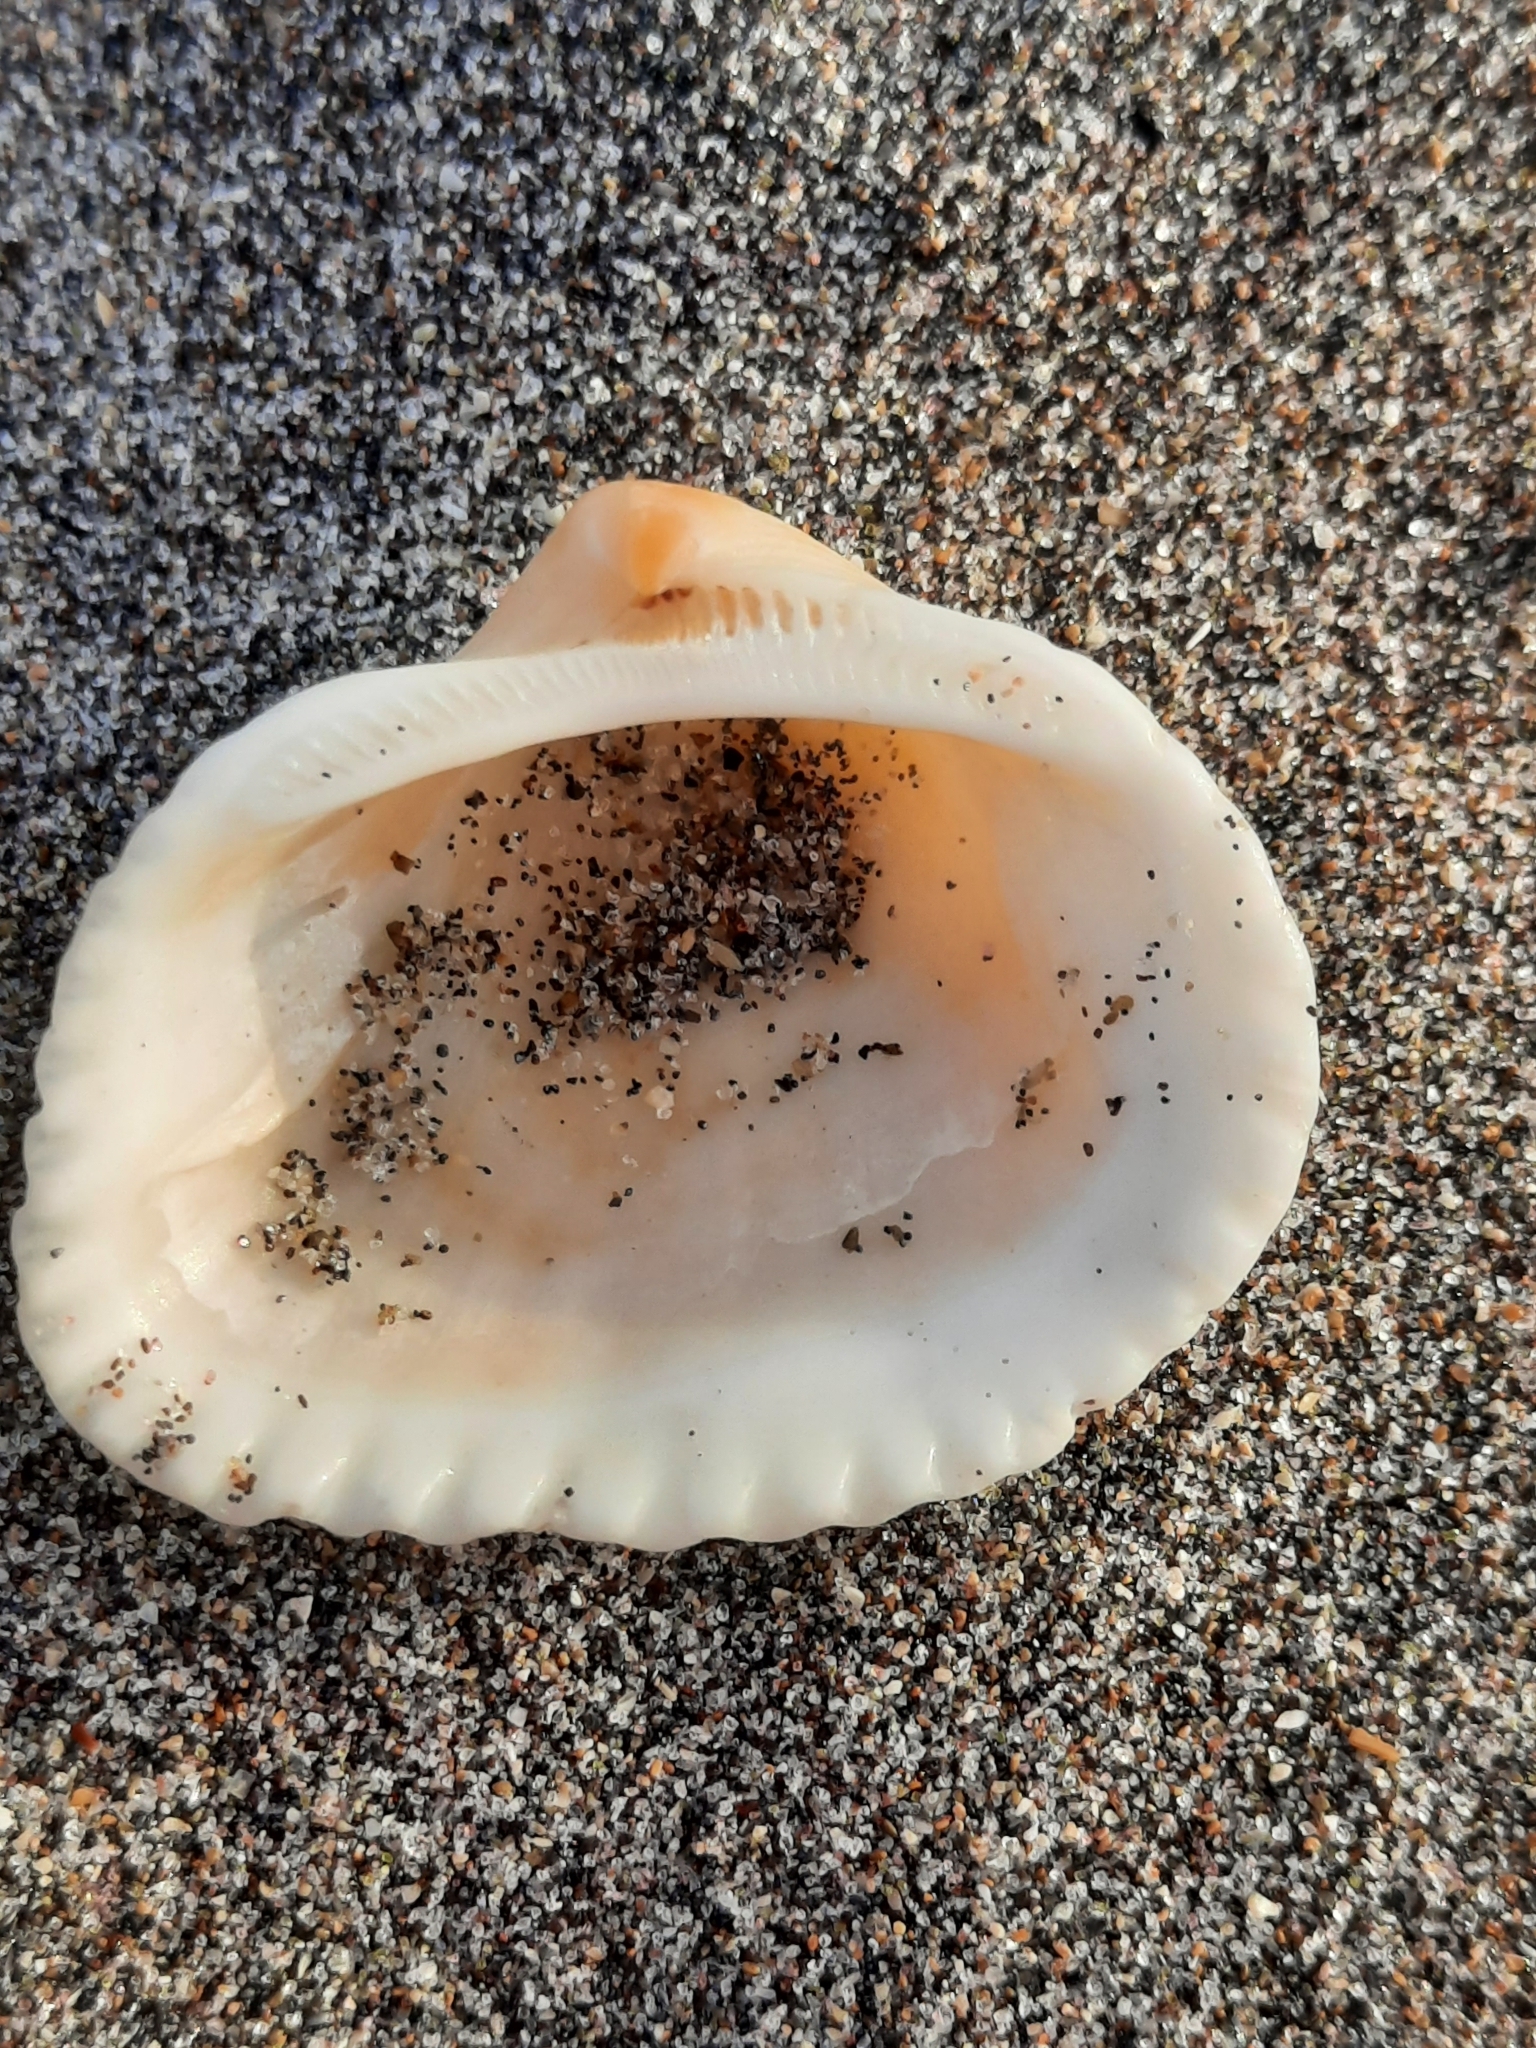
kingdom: Animalia
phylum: Mollusca
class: Bivalvia
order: Arcida
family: Noetiidae
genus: Noetia
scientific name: Noetia ponderosa
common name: Ponderous ark
